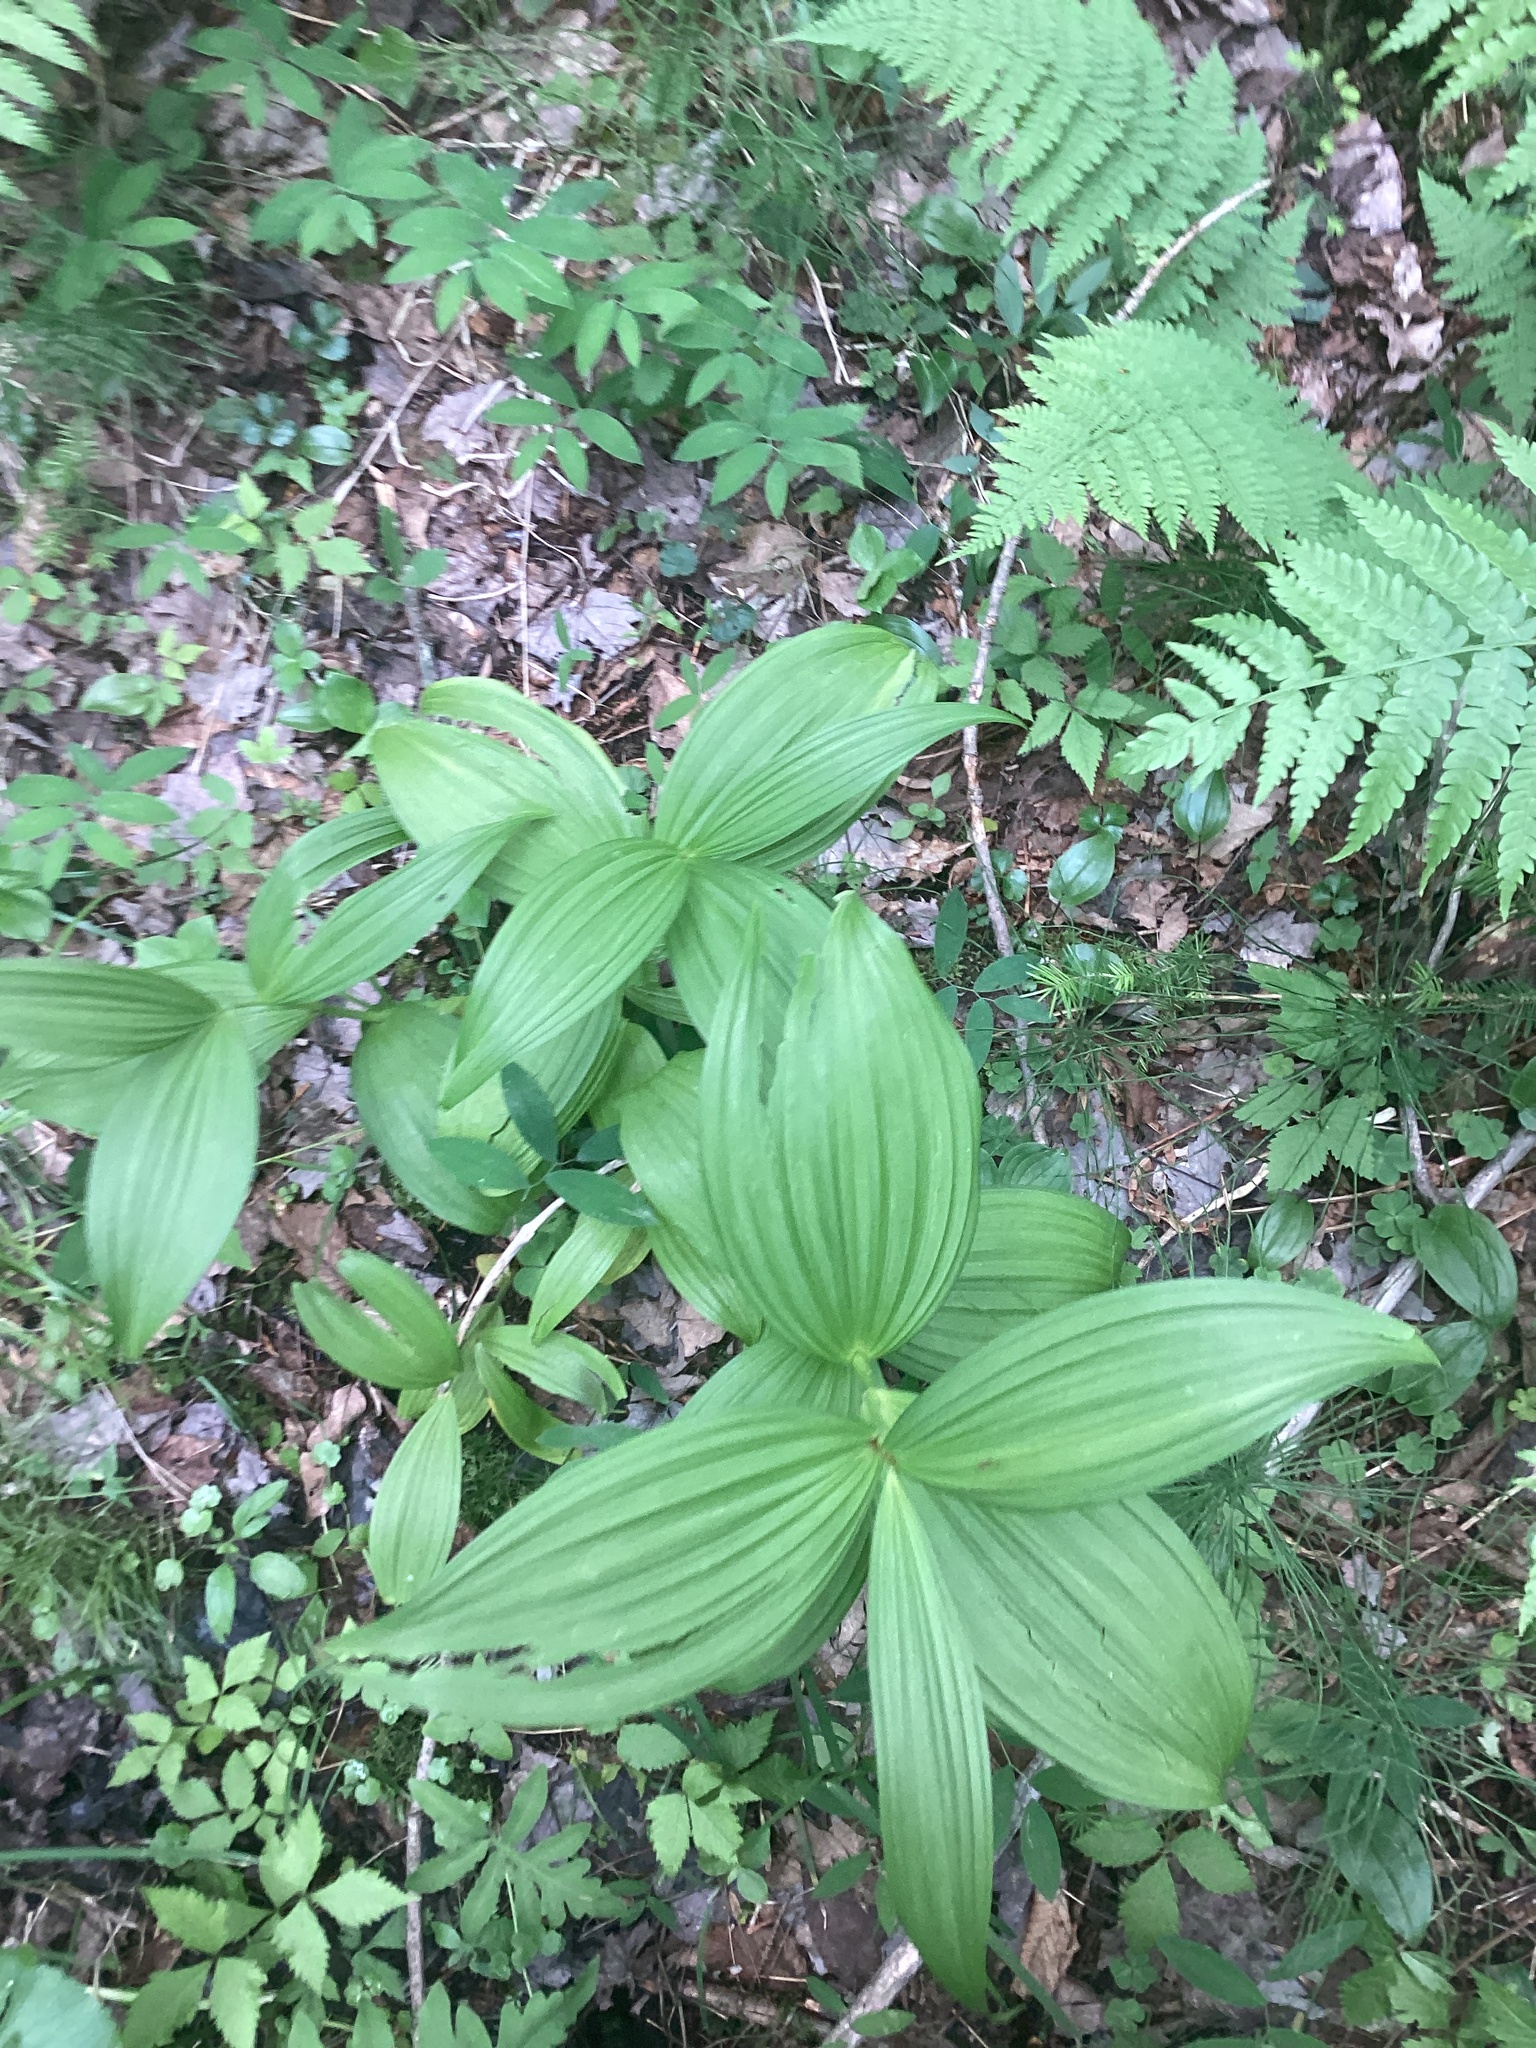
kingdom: Plantae
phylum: Tracheophyta
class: Liliopsida
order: Liliales
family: Melanthiaceae
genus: Veratrum
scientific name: Veratrum viride
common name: American false hellebore
